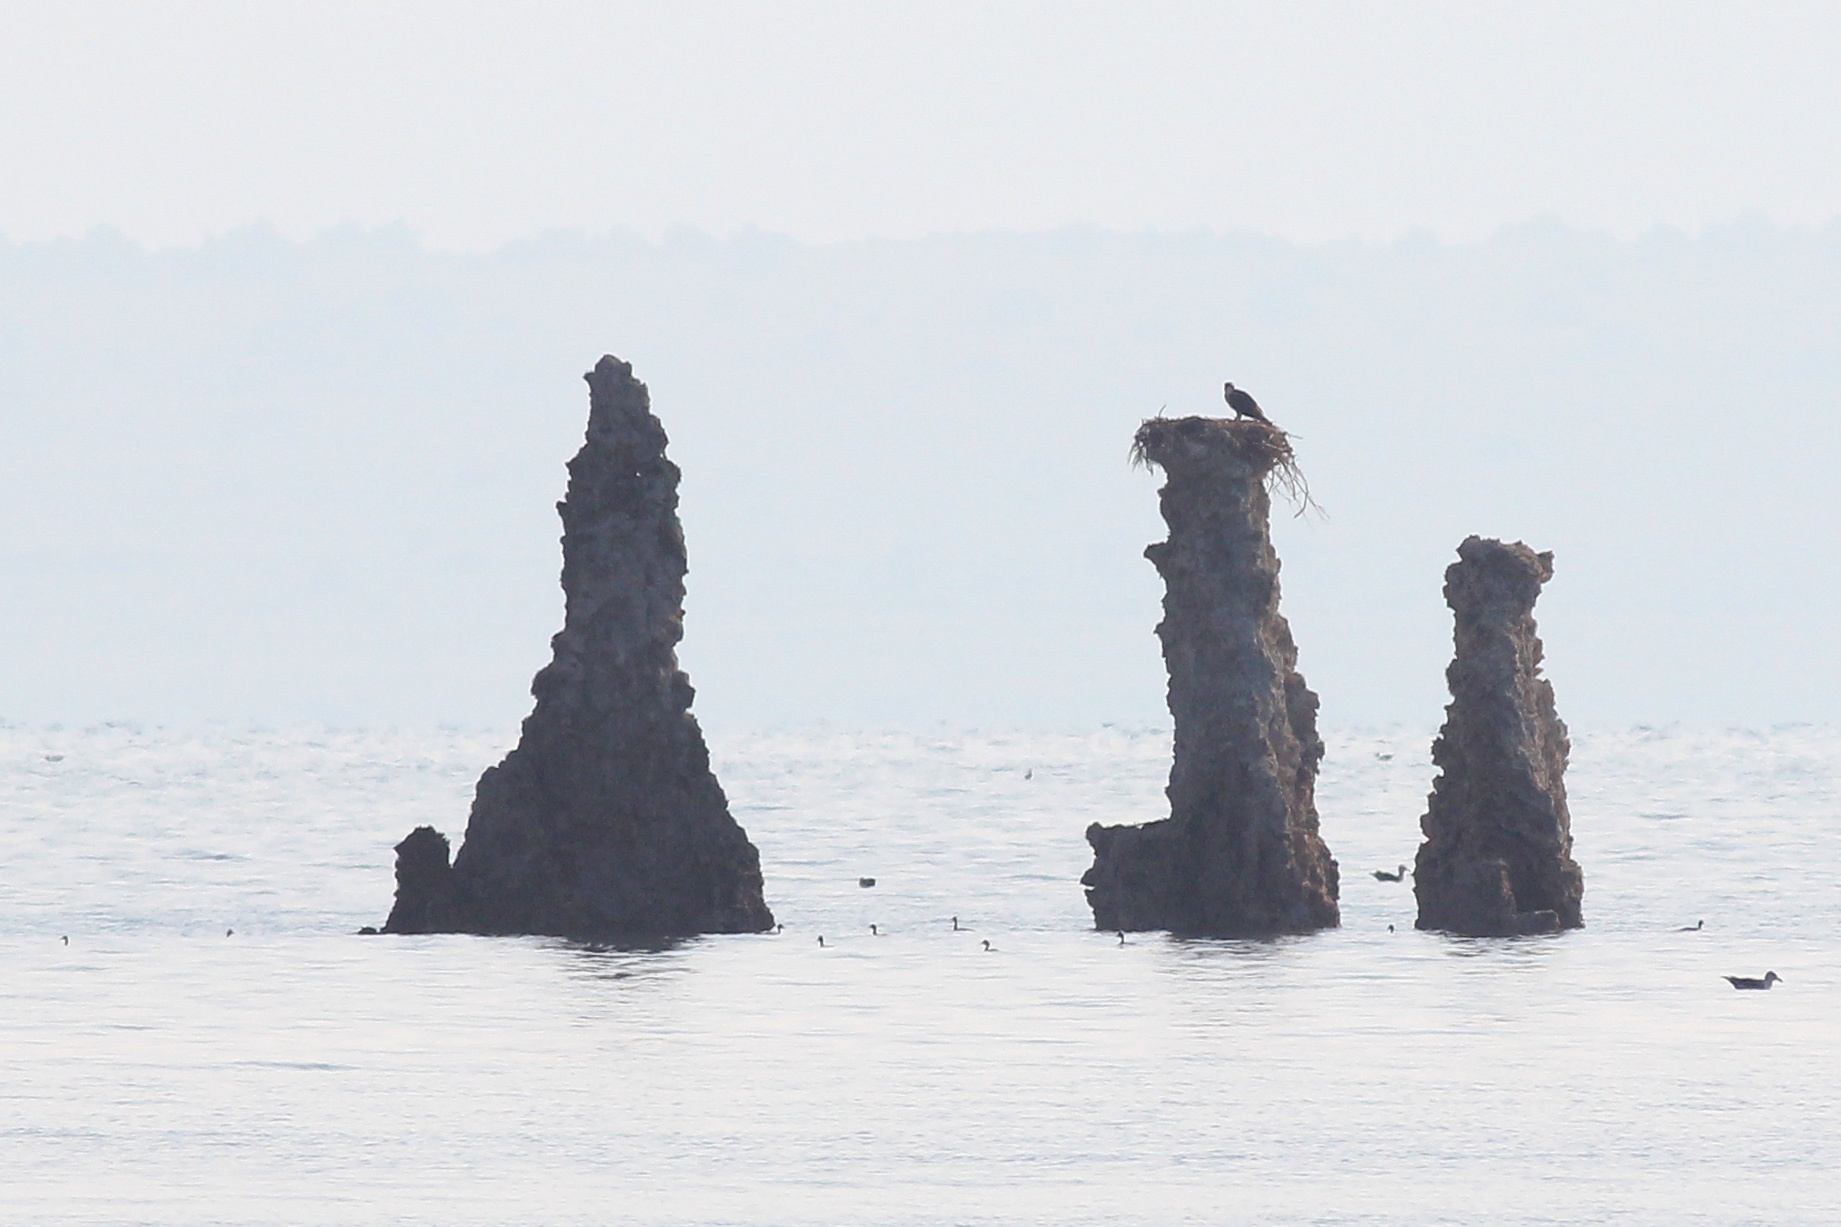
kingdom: Animalia
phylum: Chordata
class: Aves
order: Accipitriformes
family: Pandionidae
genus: Pandion
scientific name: Pandion haliaetus
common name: Osprey
